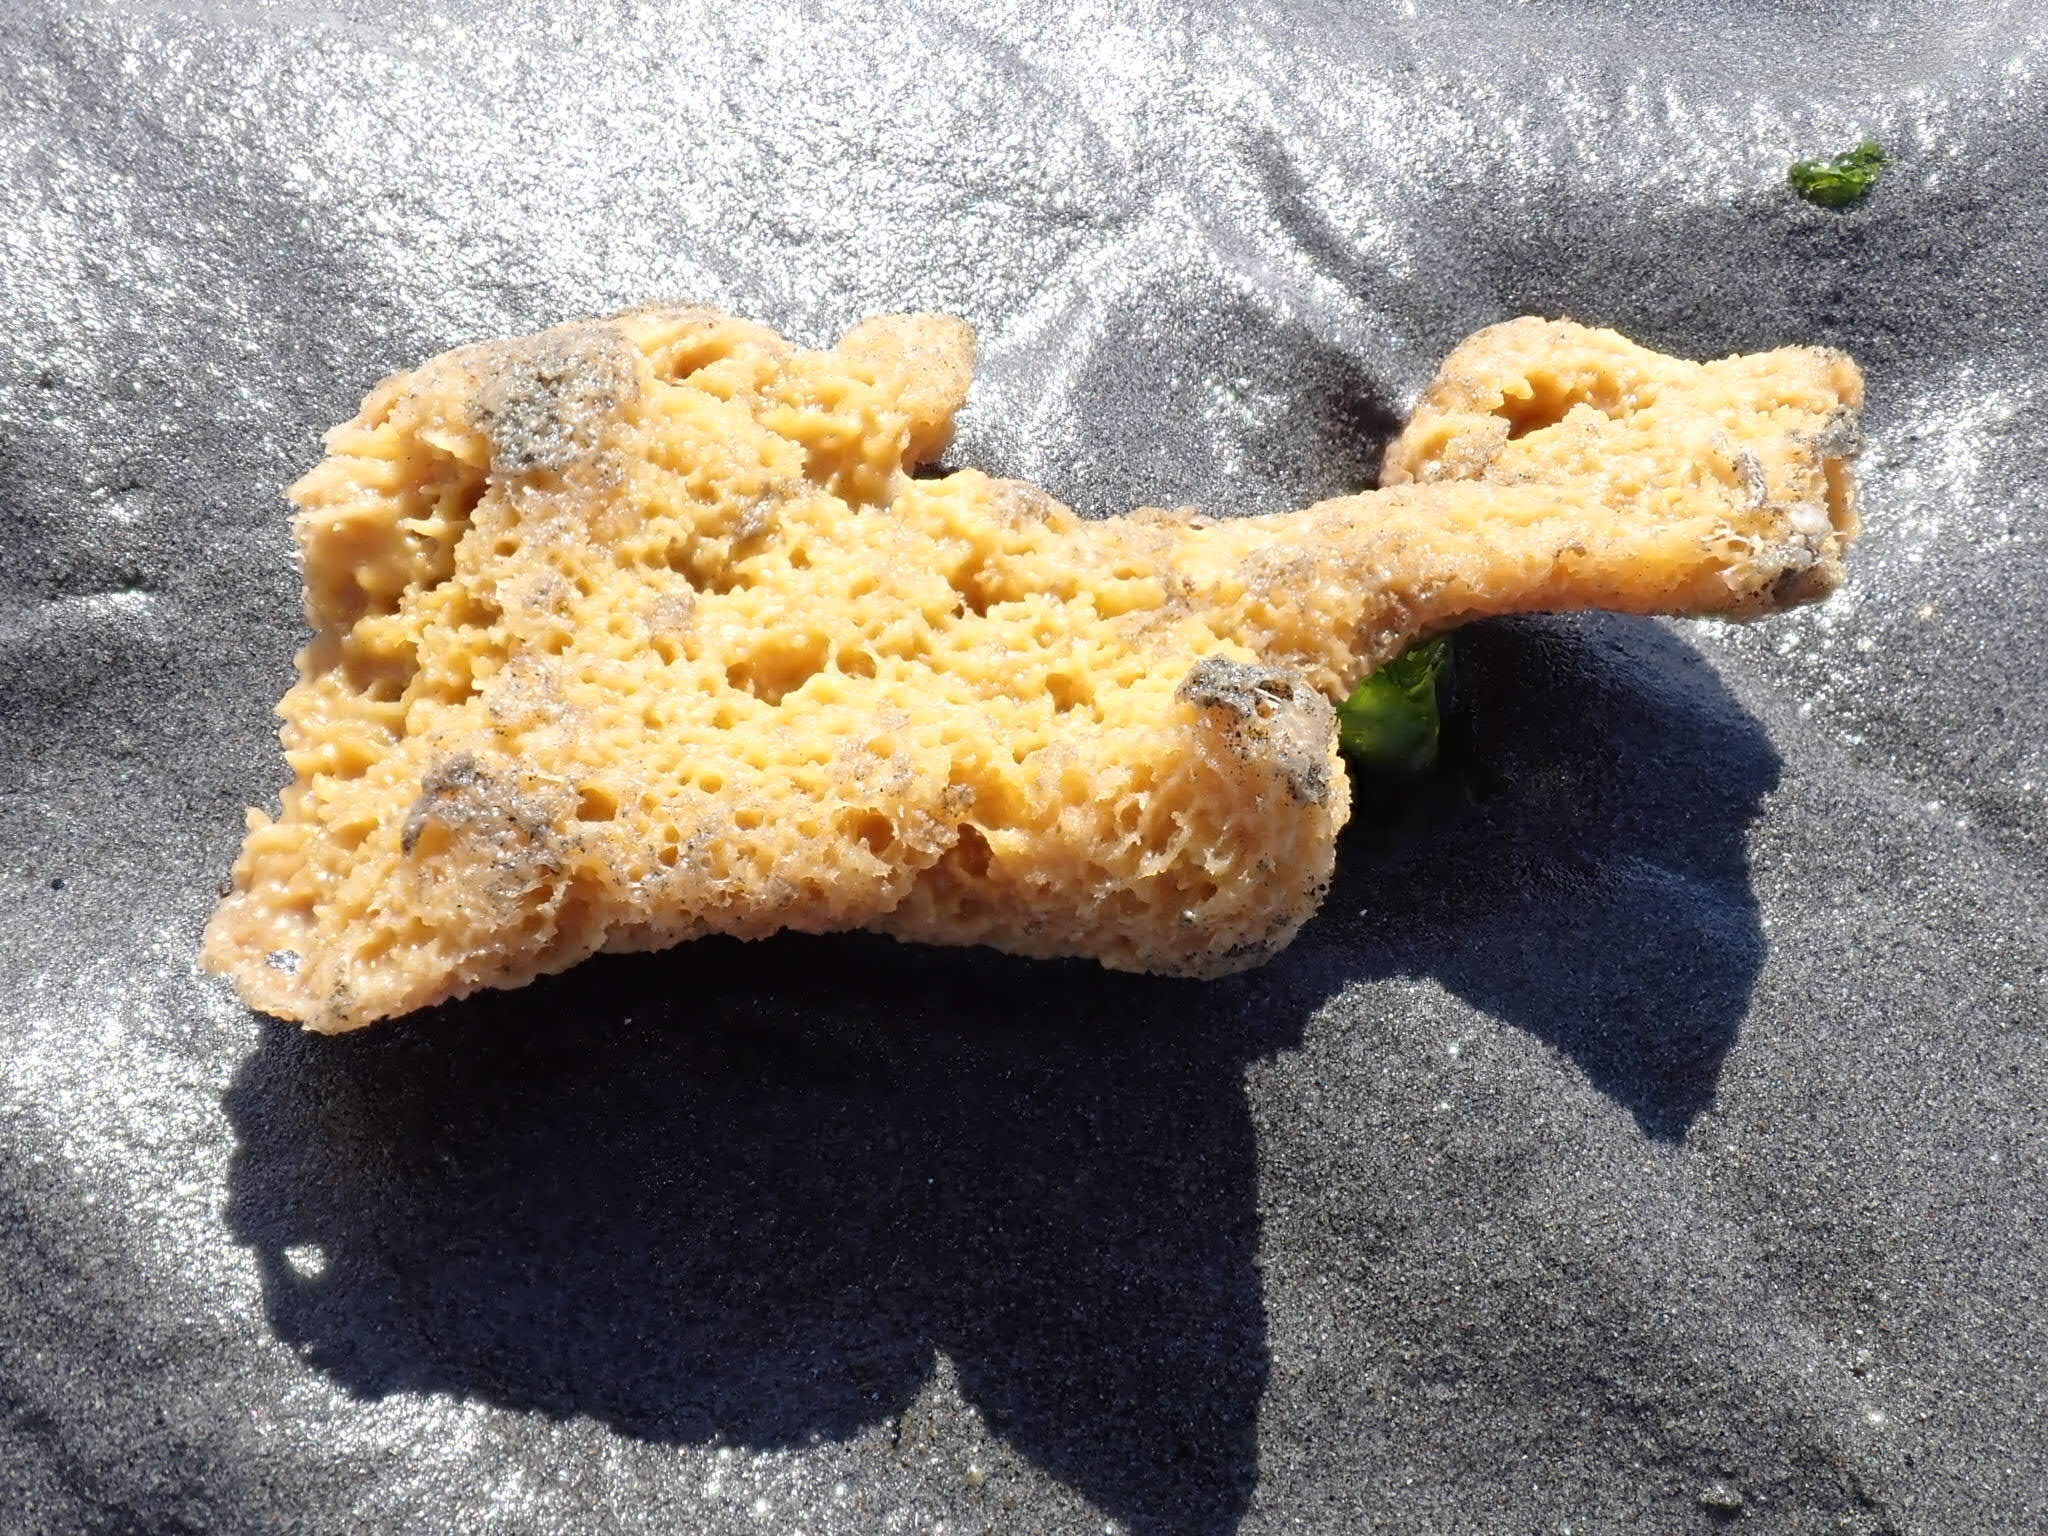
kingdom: Animalia
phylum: Porifera
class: Demospongiae
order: Suberitida
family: Halichondriidae
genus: Halichondria
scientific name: Halichondria panicea
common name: Breadcrumb sponge
